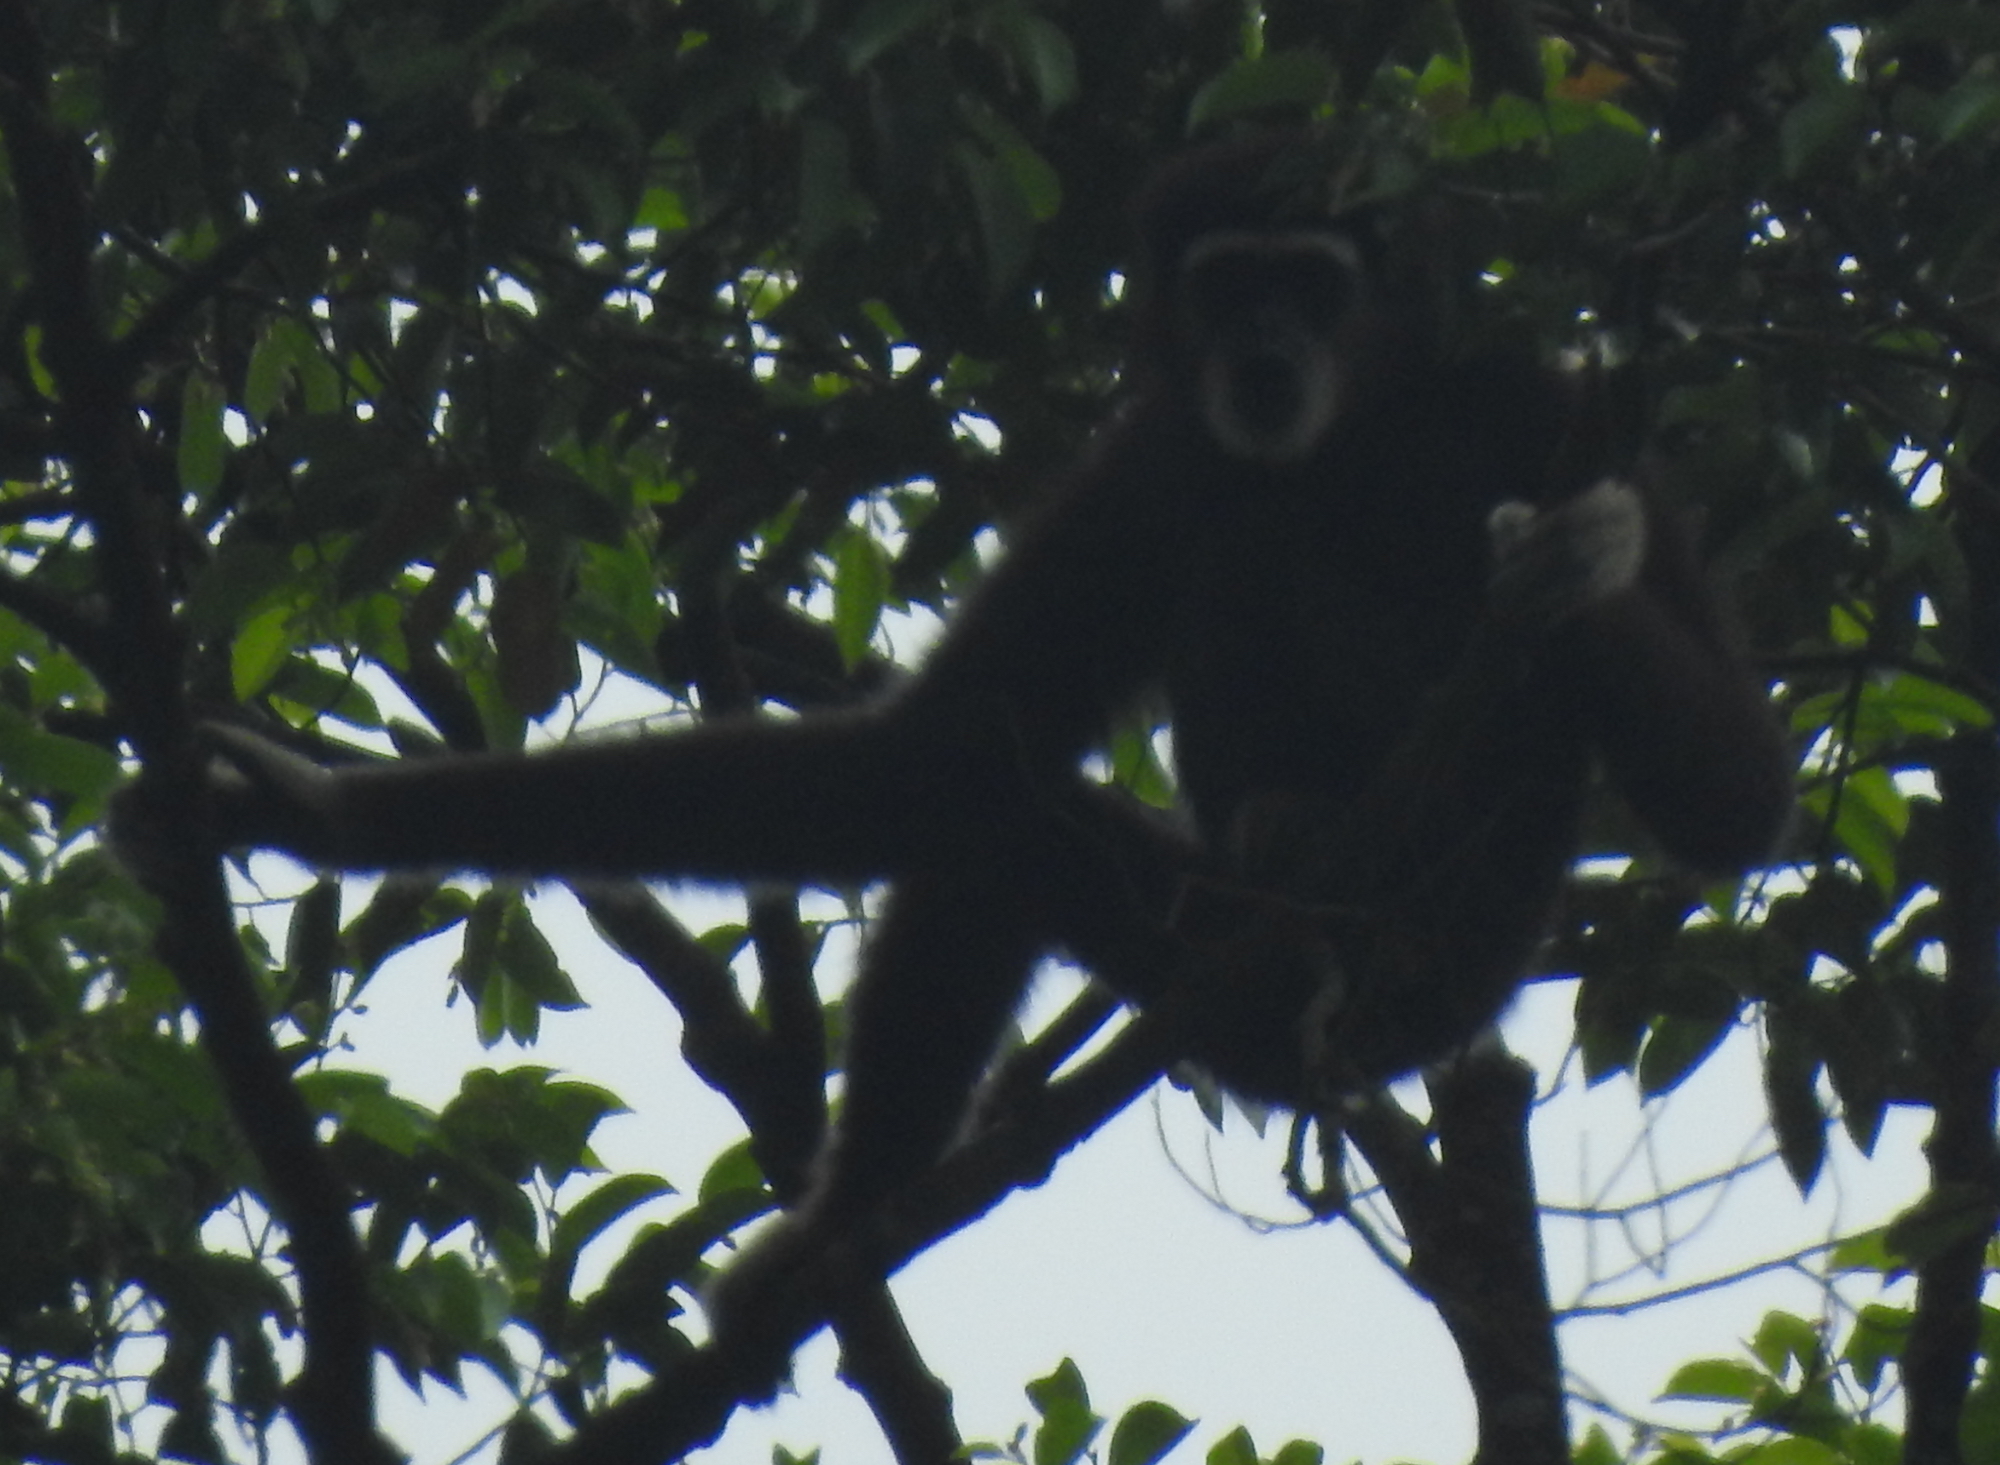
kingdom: Animalia
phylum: Chordata
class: Mammalia
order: Primates
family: Hylobatidae
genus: Hylobates
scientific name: Hylobates lar
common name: Lar gibbon
